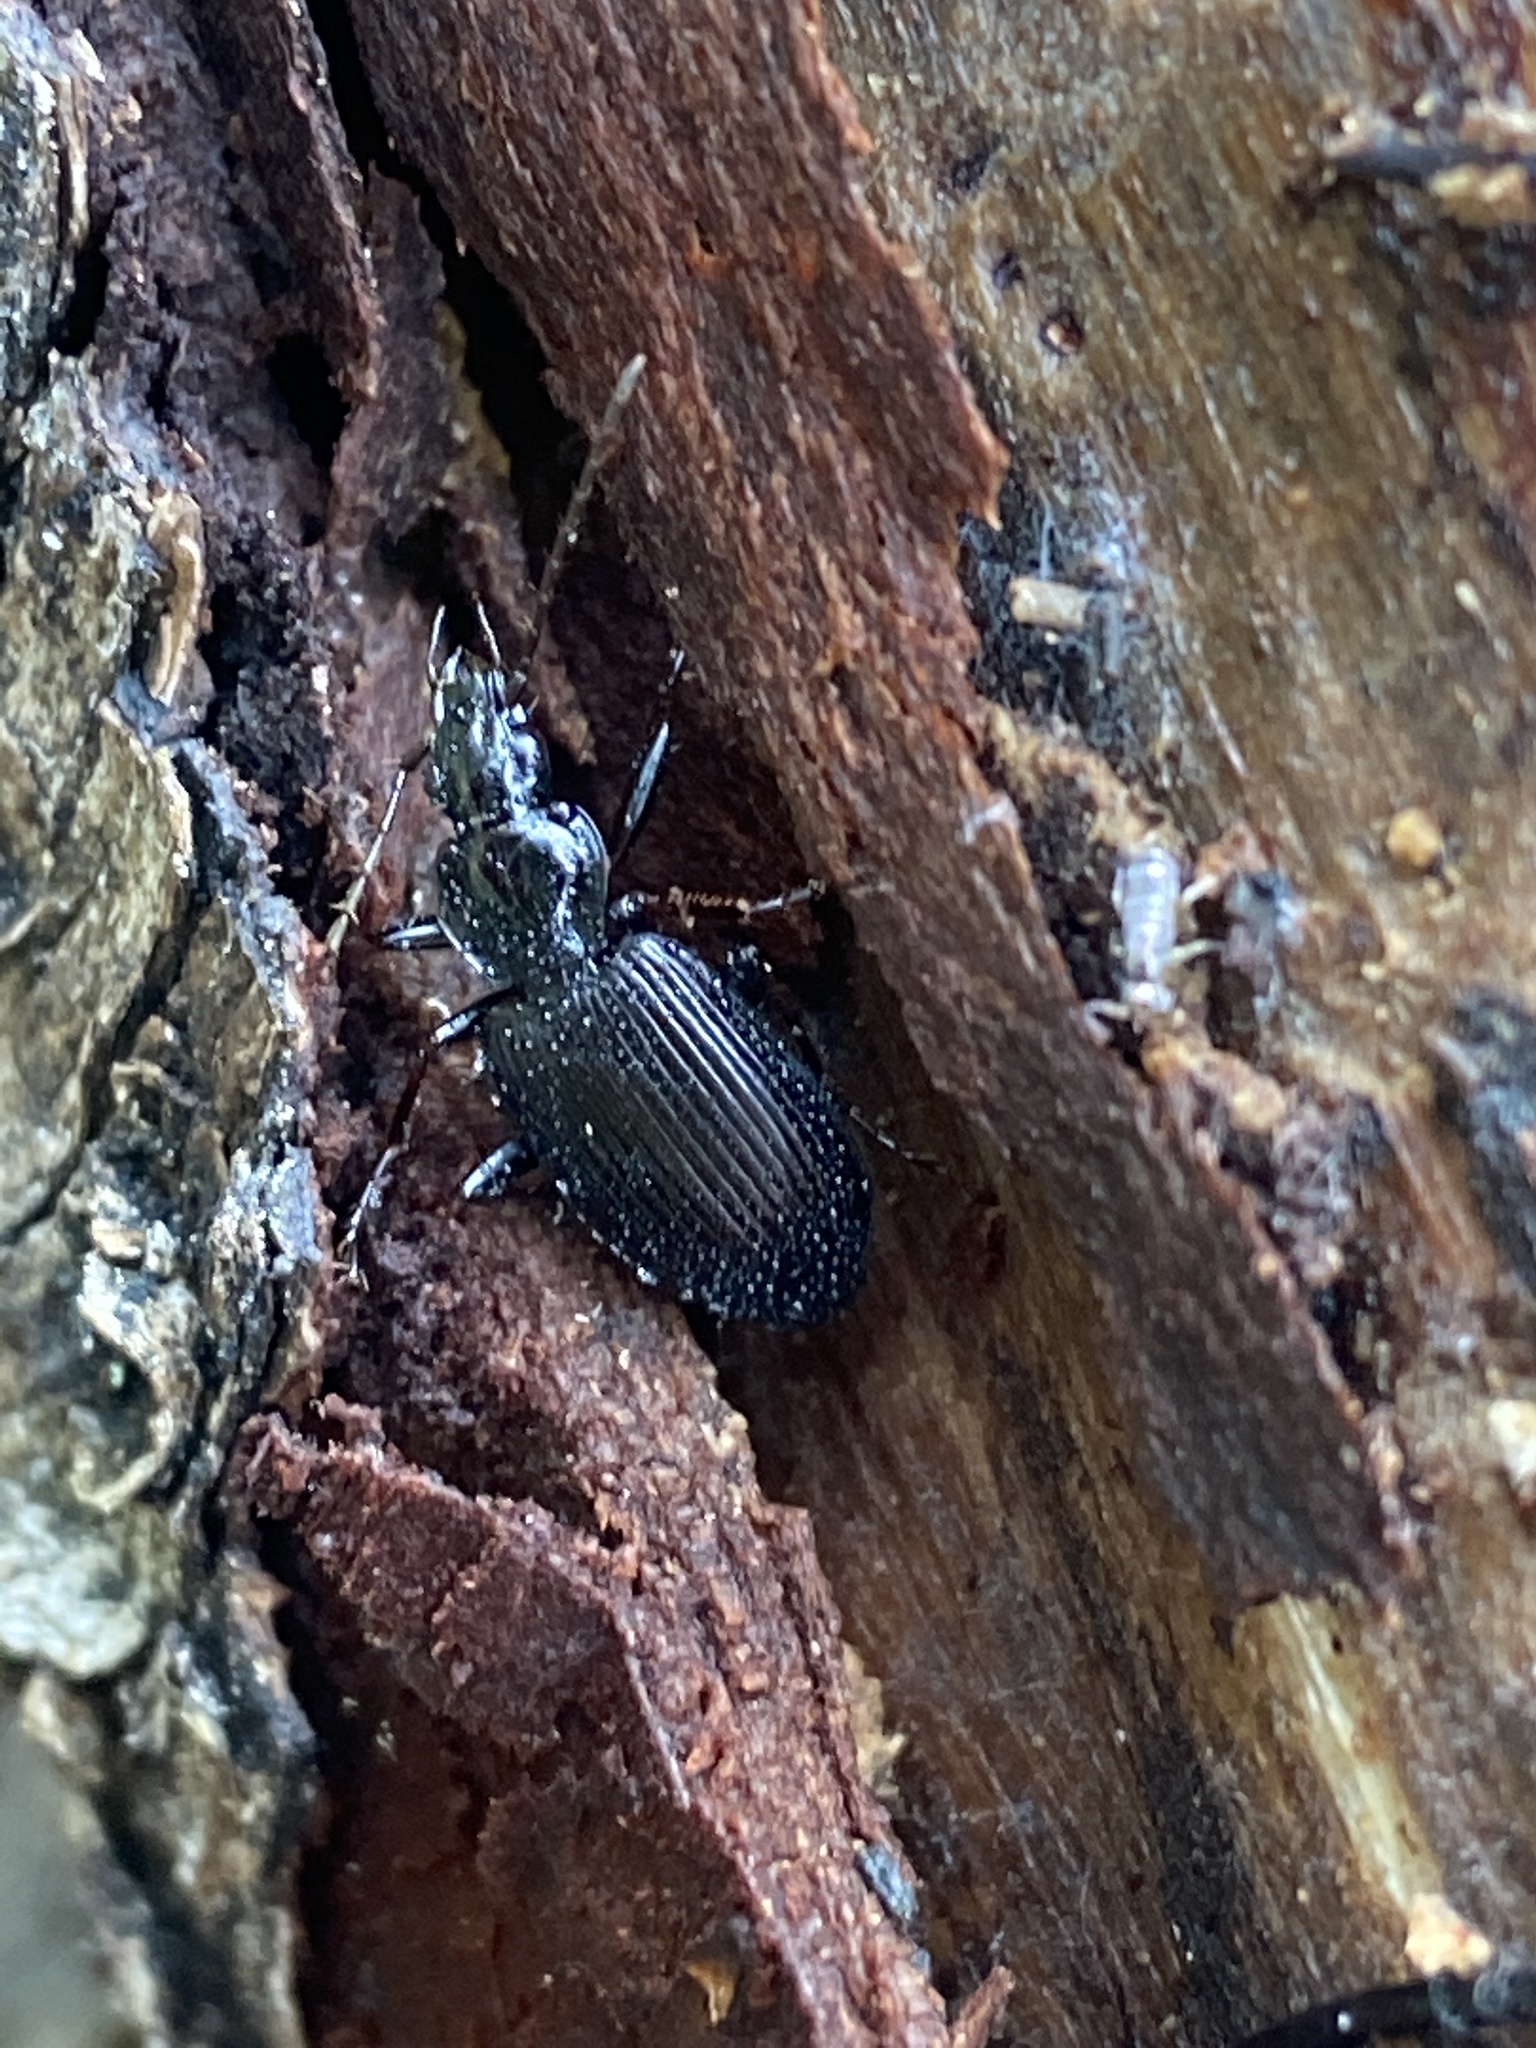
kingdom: Animalia
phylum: Arthropoda
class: Insecta
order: Coleoptera
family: Carabidae
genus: Platynus
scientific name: Platynus assimilis
